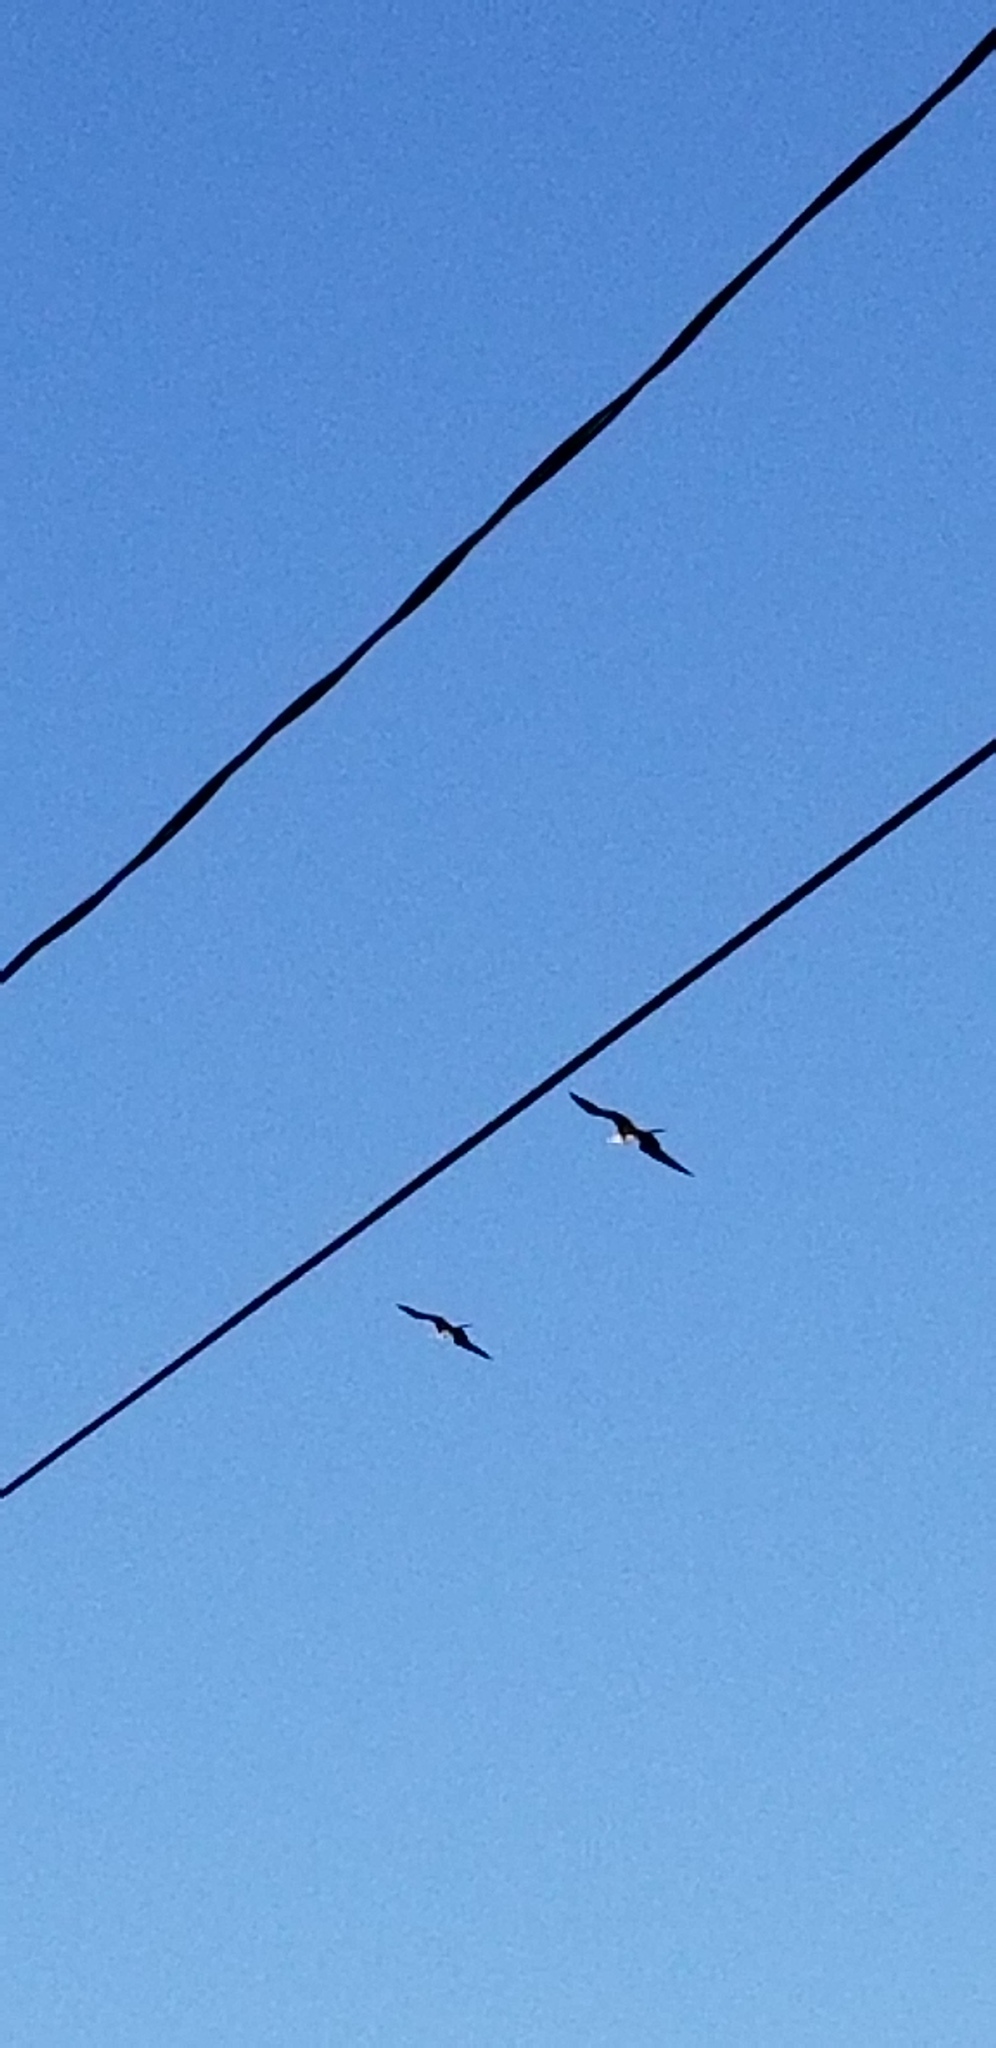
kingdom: Animalia
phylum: Chordata
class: Aves
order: Suliformes
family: Fregatidae
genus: Fregata
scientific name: Fregata magnificens
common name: Magnificent frigatebird
